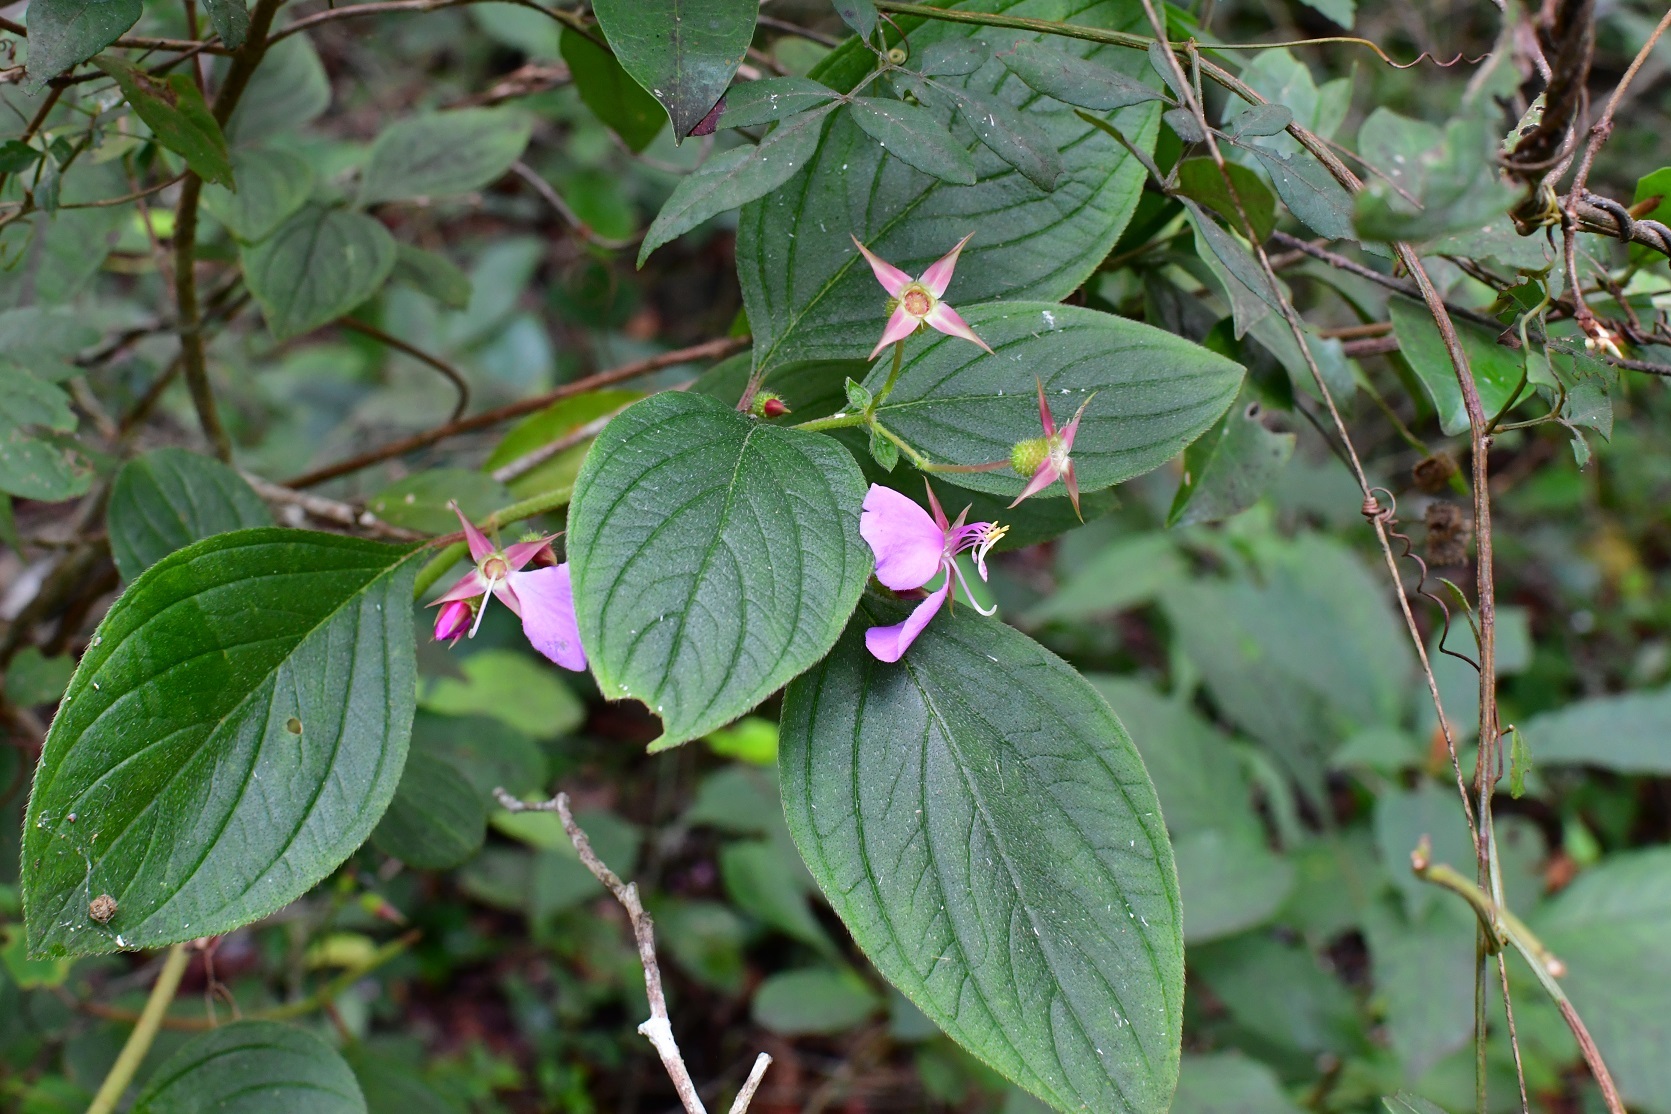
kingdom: Plantae
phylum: Tracheophyta
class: Magnoliopsida
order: Myrtales
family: Melastomataceae
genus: Heterocentron
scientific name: Heterocentron muricatum
